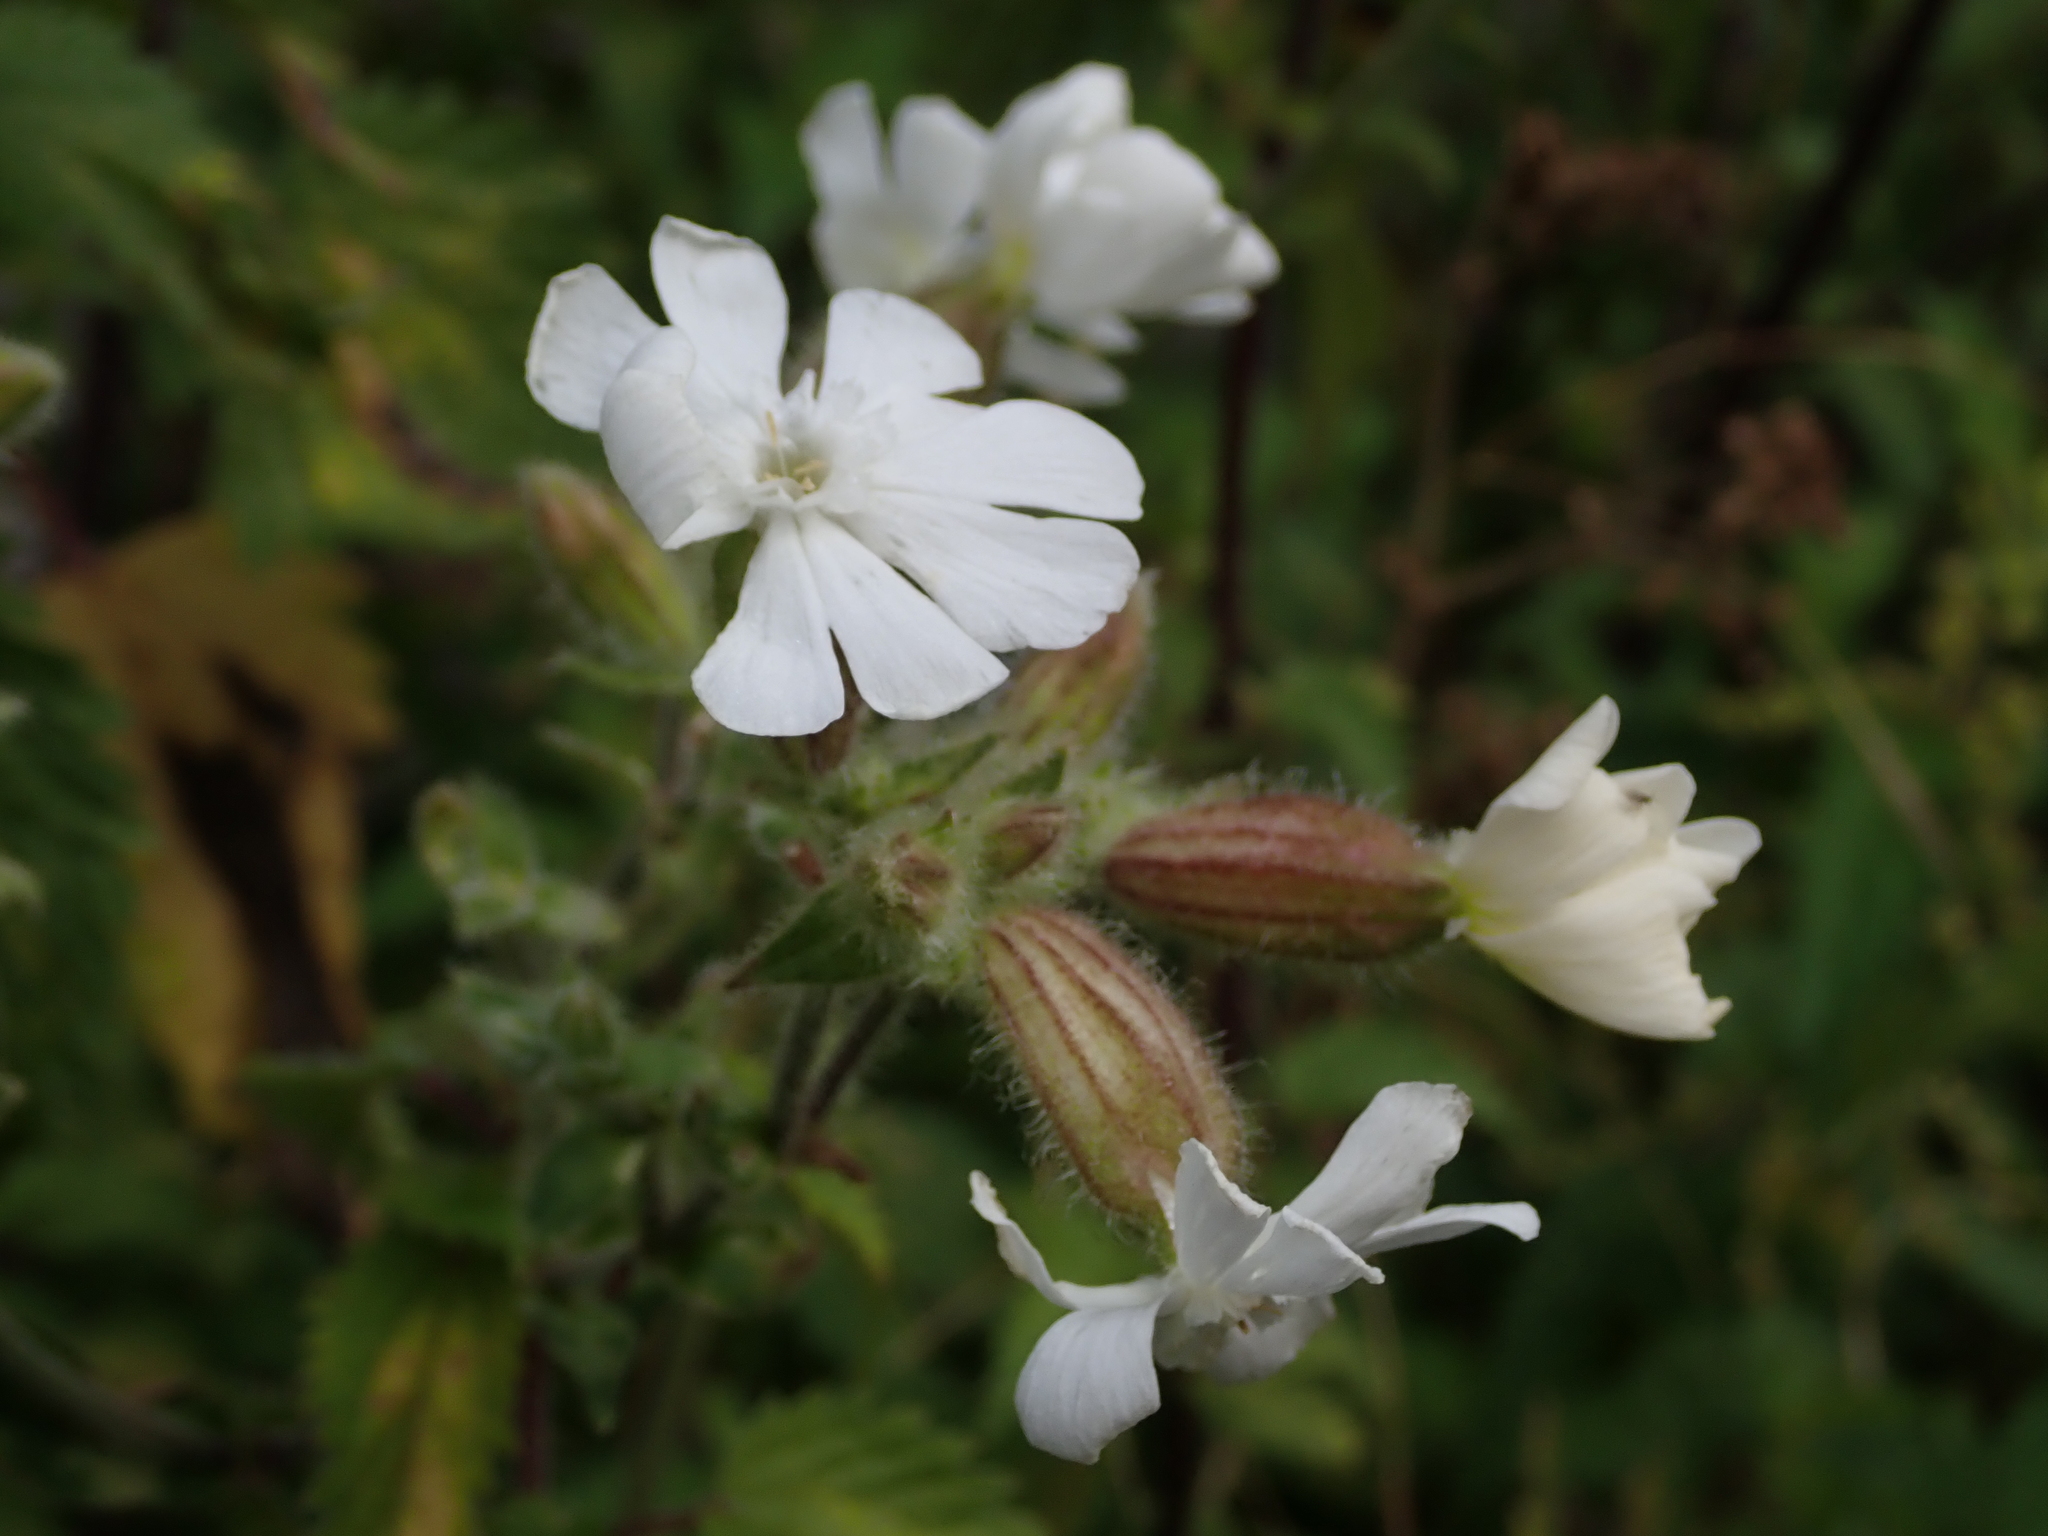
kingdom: Plantae
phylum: Tracheophyta
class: Magnoliopsida
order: Caryophyllales
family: Caryophyllaceae
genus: Silene
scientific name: Silene latifolia
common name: White campion
